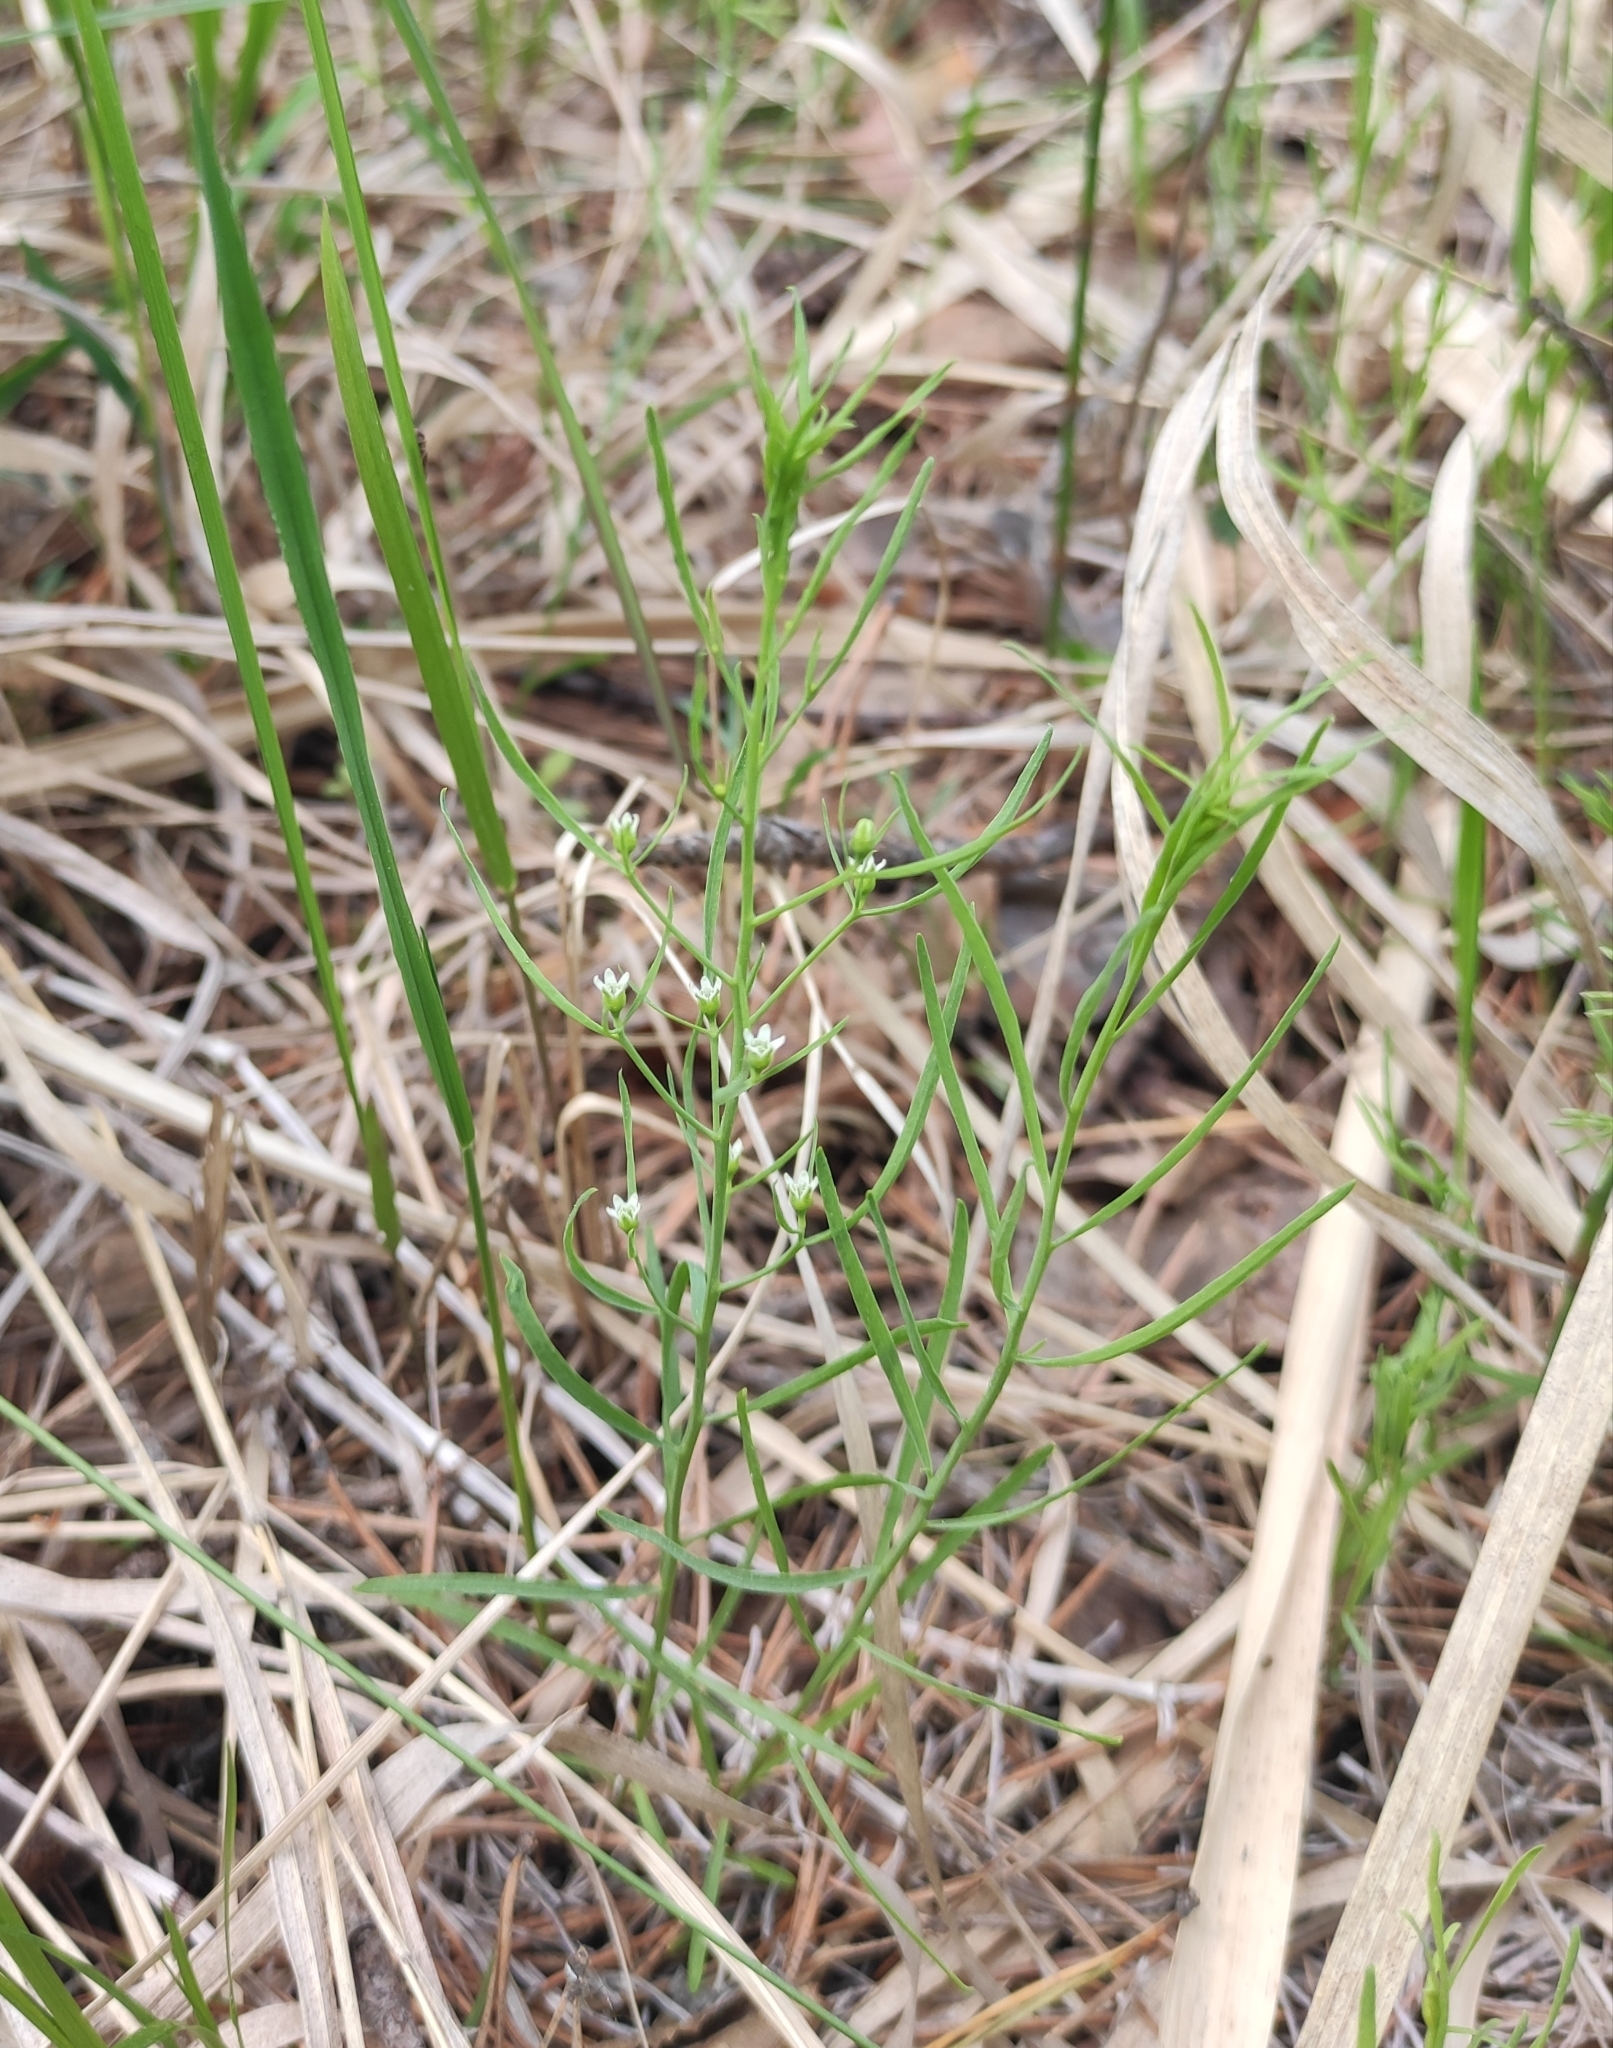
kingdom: Plantae
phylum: Tracheophyta
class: Magnoliopsida
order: Santalales
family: Thesiaceae
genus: Thesium
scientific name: Thesium repens
